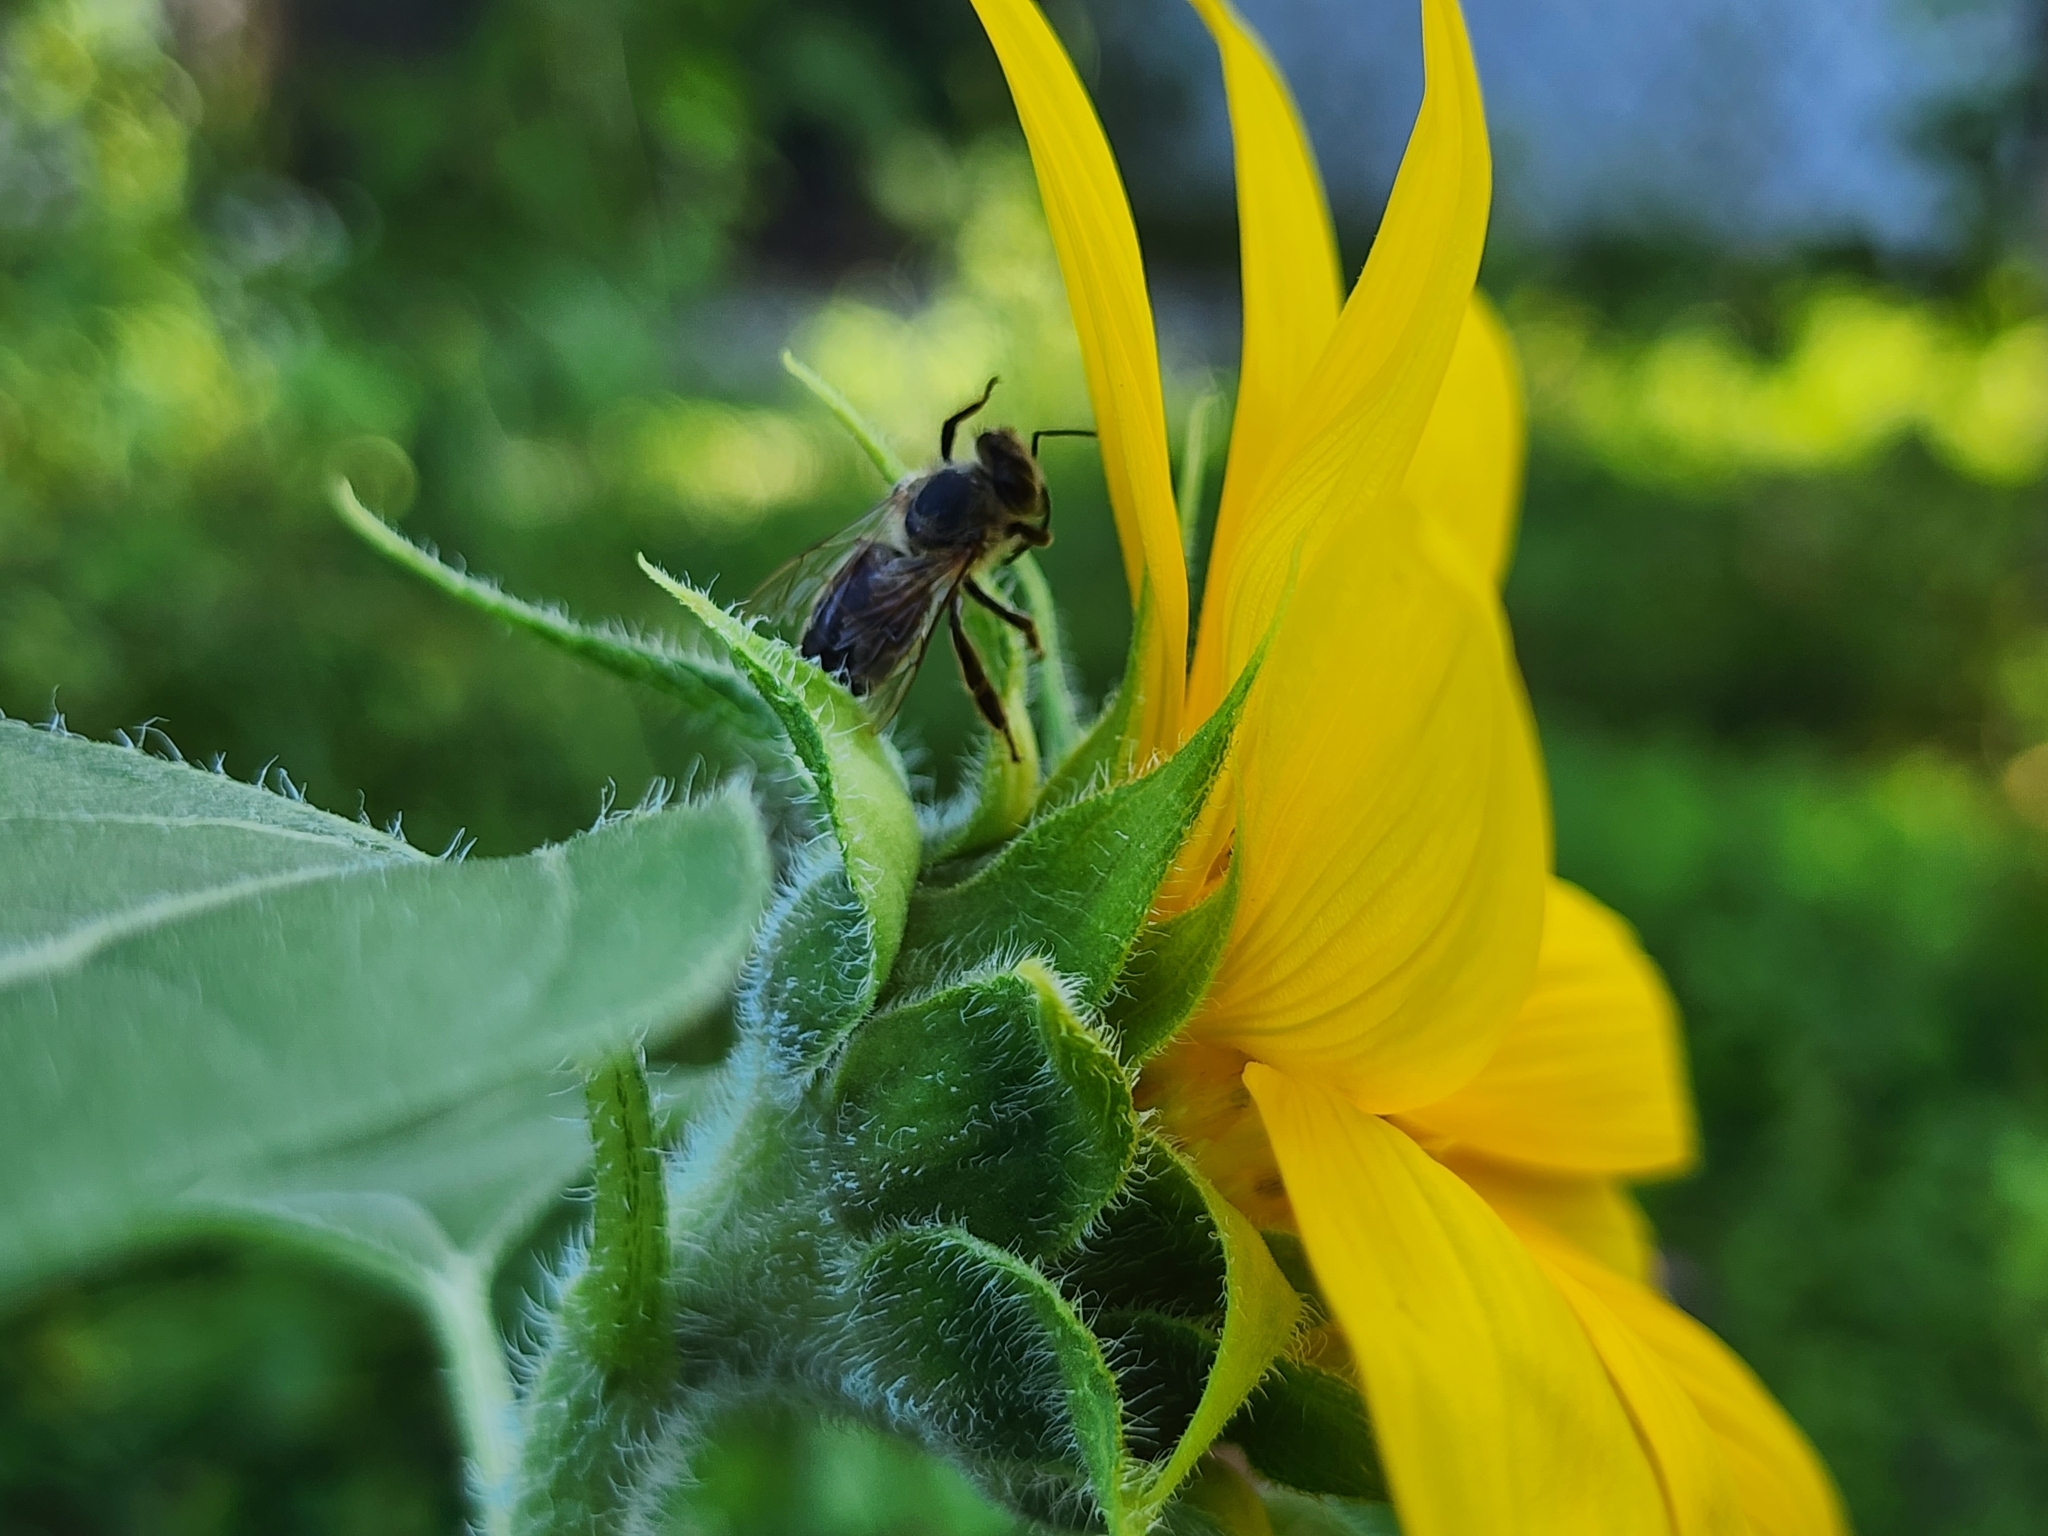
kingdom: Animalia
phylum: Arthropoda
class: Insecta
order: Hymenoptera
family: Apidae
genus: Apis
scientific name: Apis mellifera
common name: Honey bee
